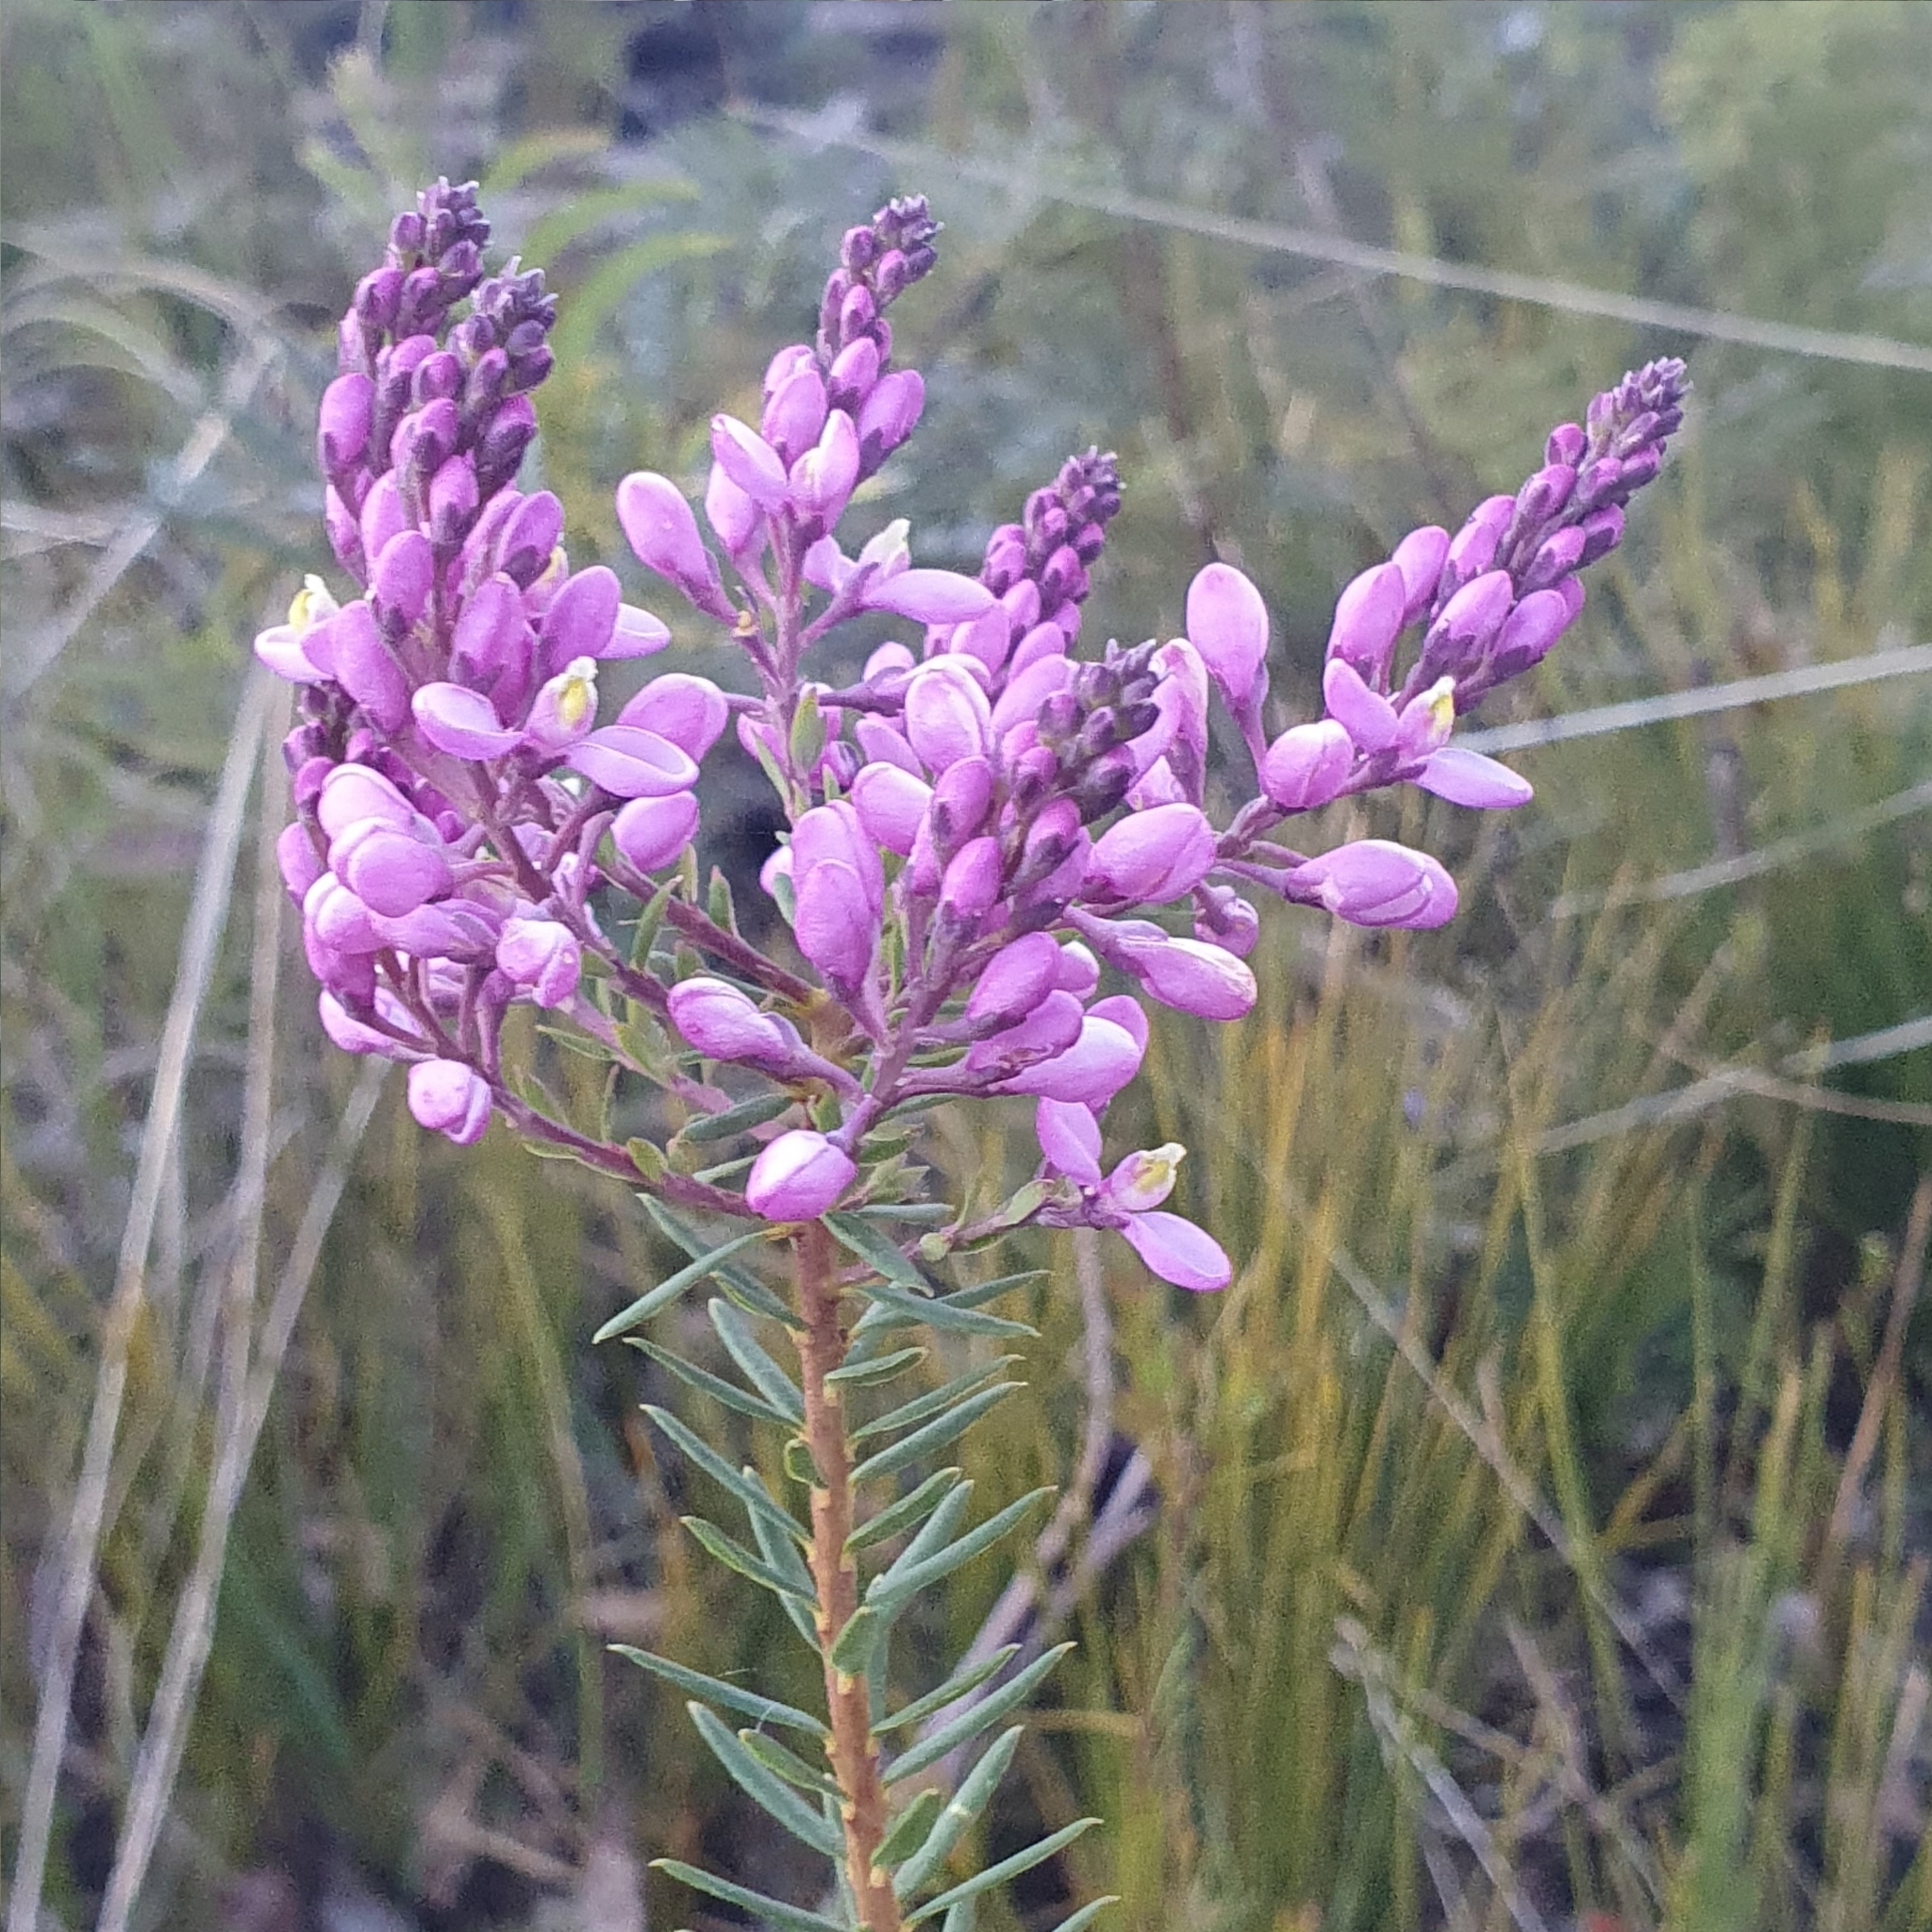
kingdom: Plantae
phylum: Tracheophyta
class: Magnoliopsida
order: Fabales
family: Polygalaceae
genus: Comesperma
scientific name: Comesperma ericinum
